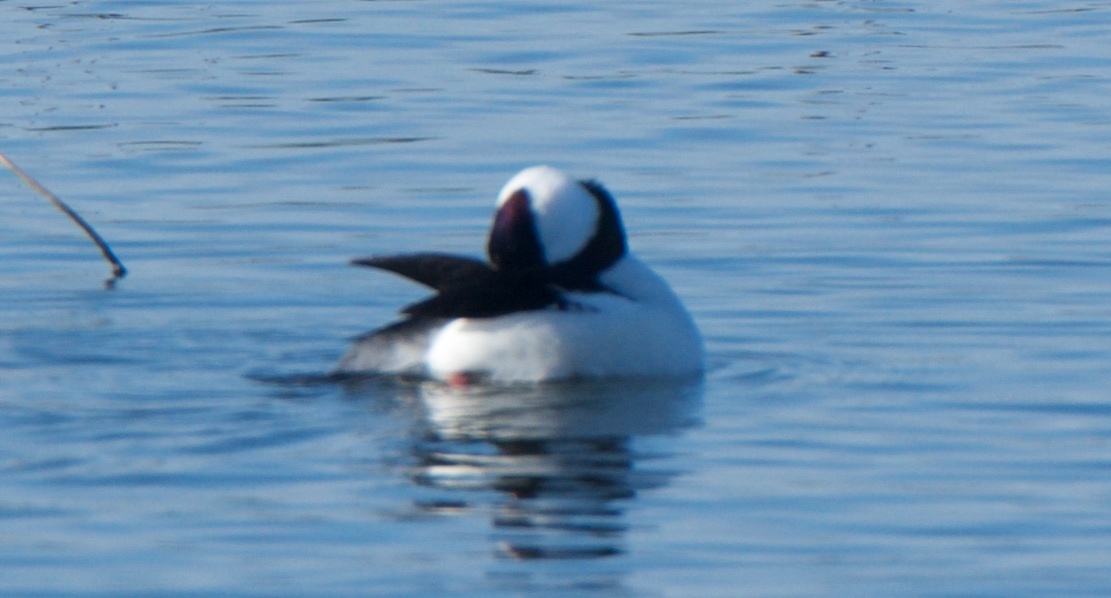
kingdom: Animalia
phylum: Chordata
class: Aves
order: Anseriformes
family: Anatidae
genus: Bucephala
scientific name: Bucephala albeola
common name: Bufflehead
